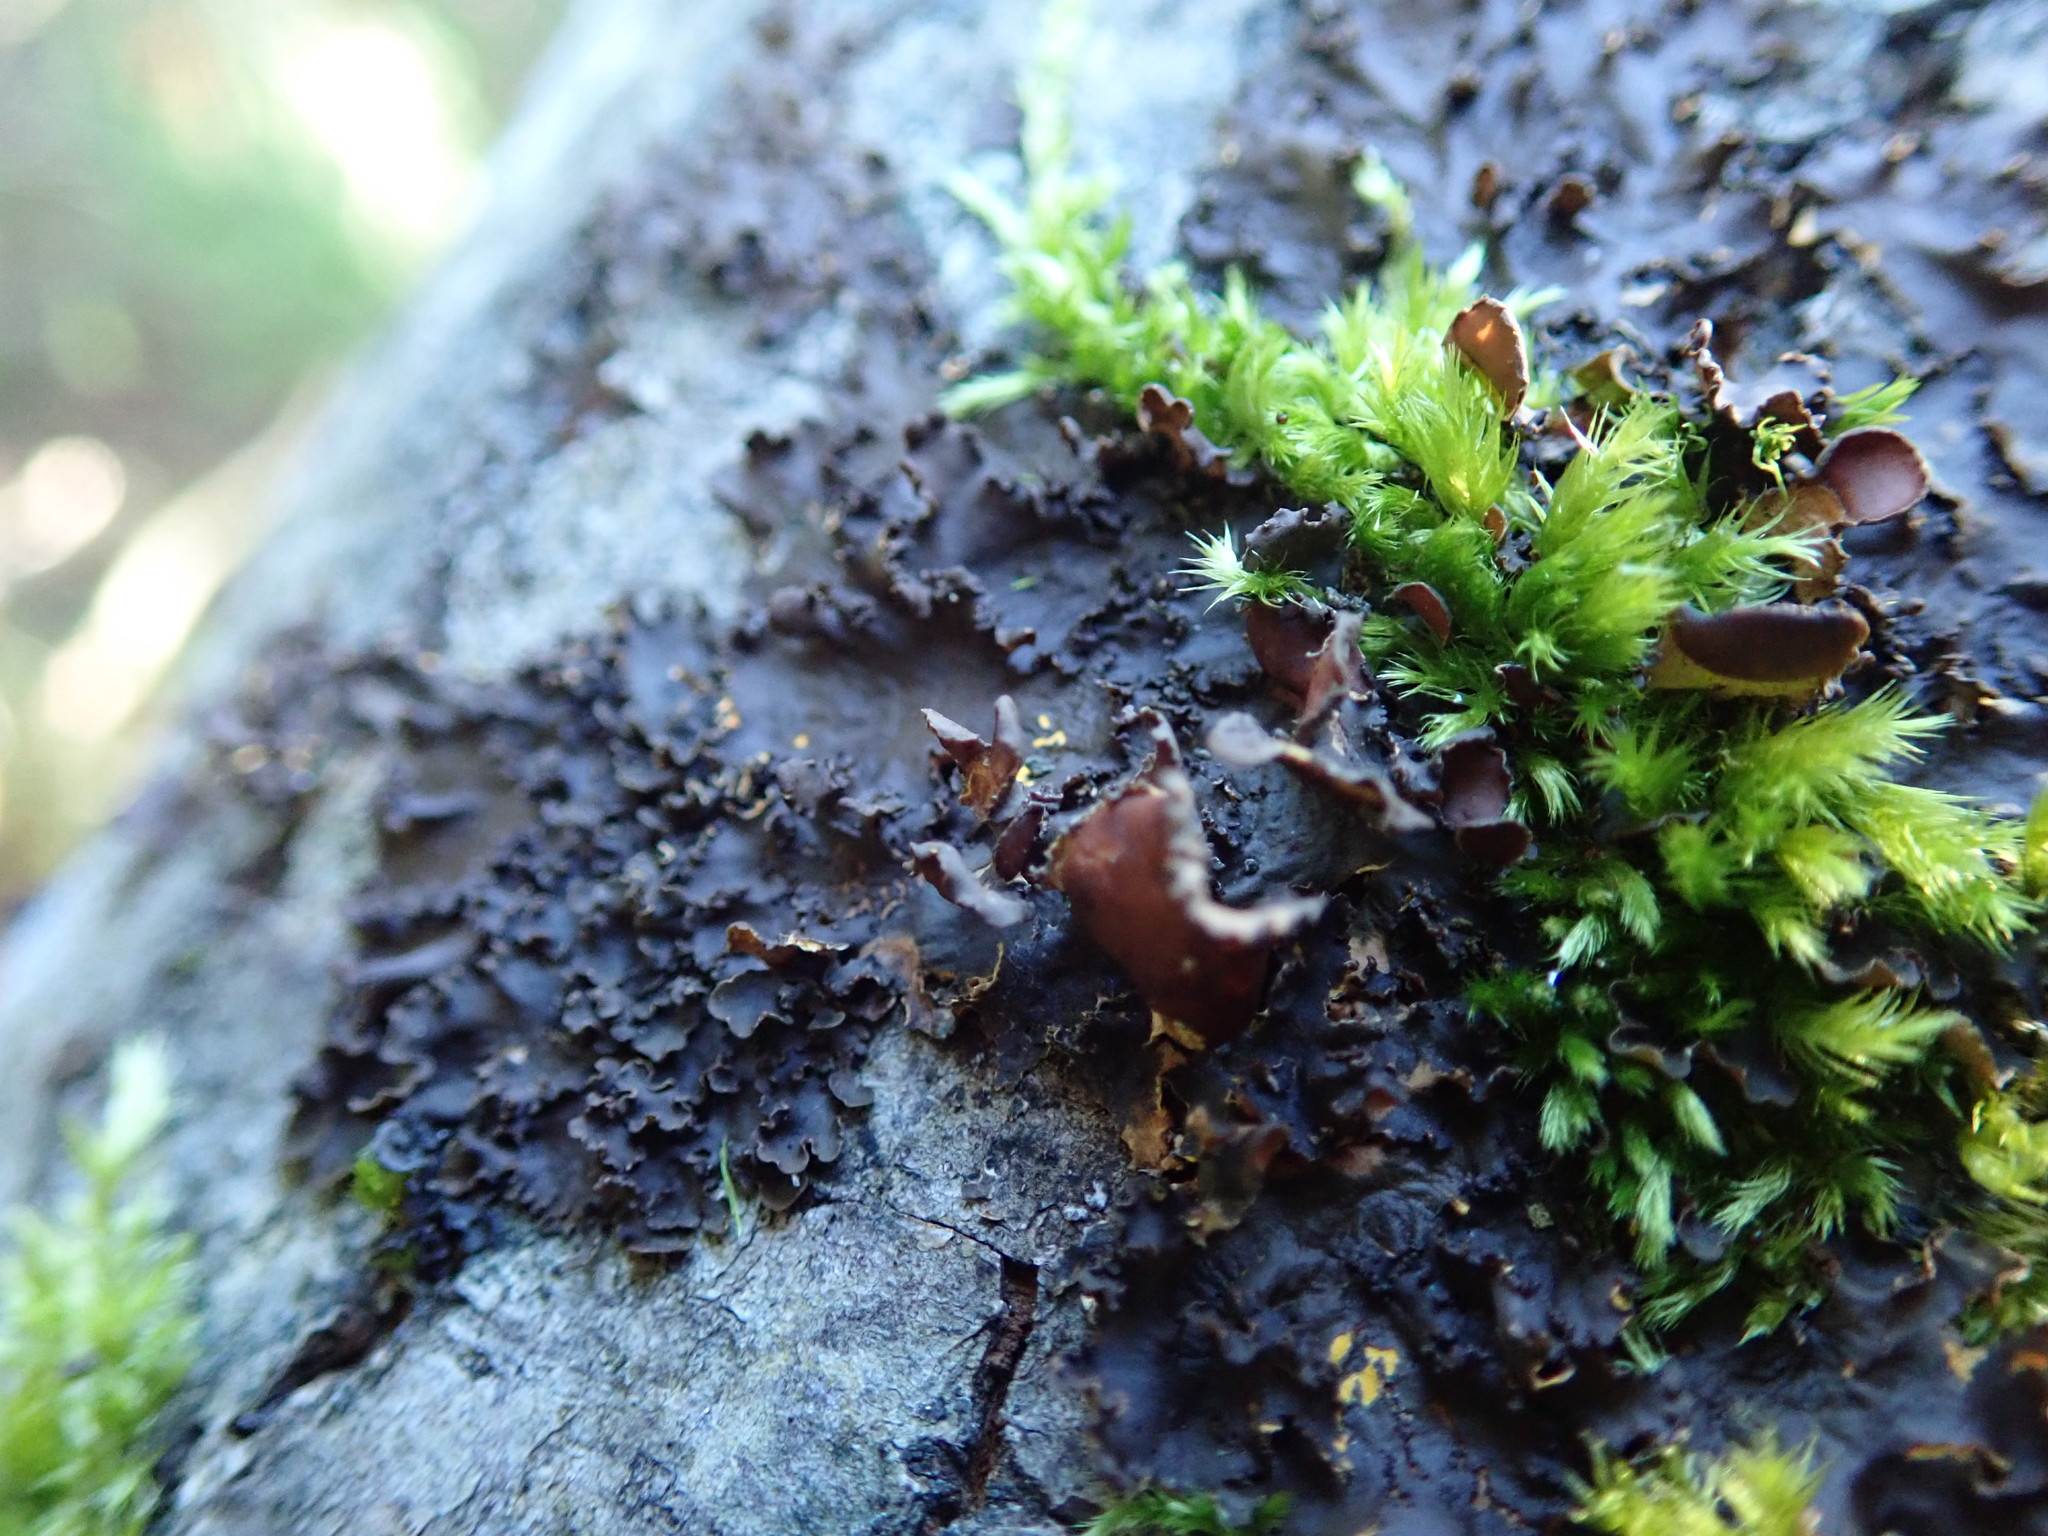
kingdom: Fungi
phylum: Ascomycota
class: Lecanoromycetes
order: Peltigerales
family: Nephromataceae
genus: Nephroma
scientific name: Nephroma laevigatum
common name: Mustard kidney lichen
